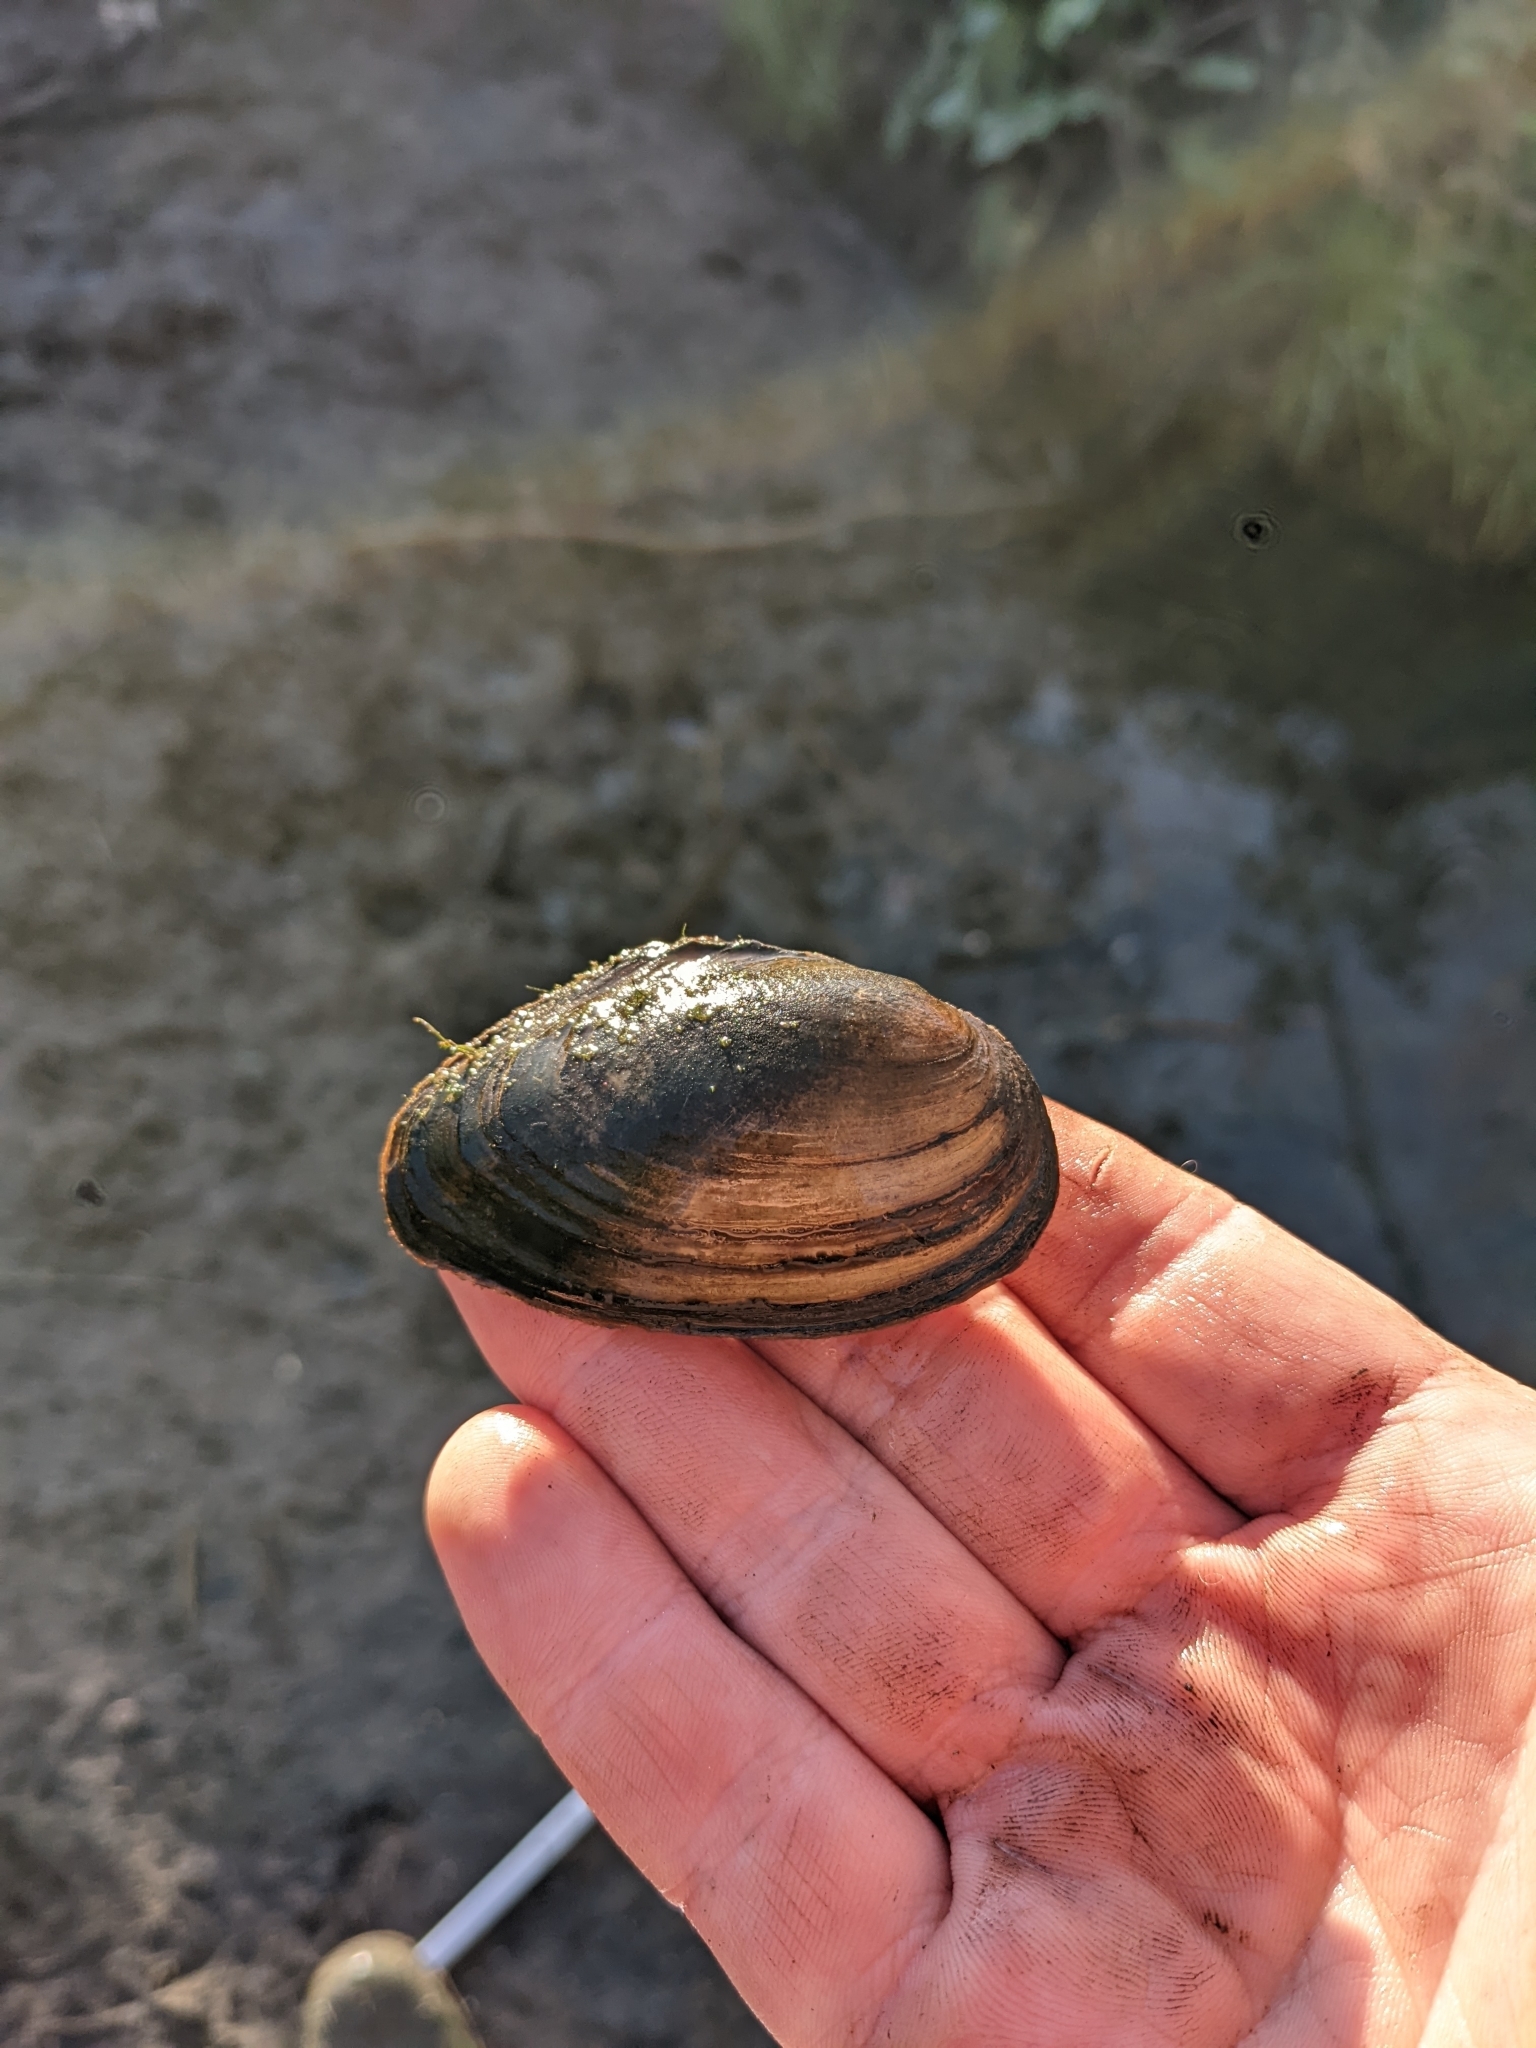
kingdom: Animalia
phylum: Mollusca
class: Bivalvia
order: Unionida
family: Unionidae
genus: Anodonta
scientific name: Anodonta anatina
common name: Duck mussel
